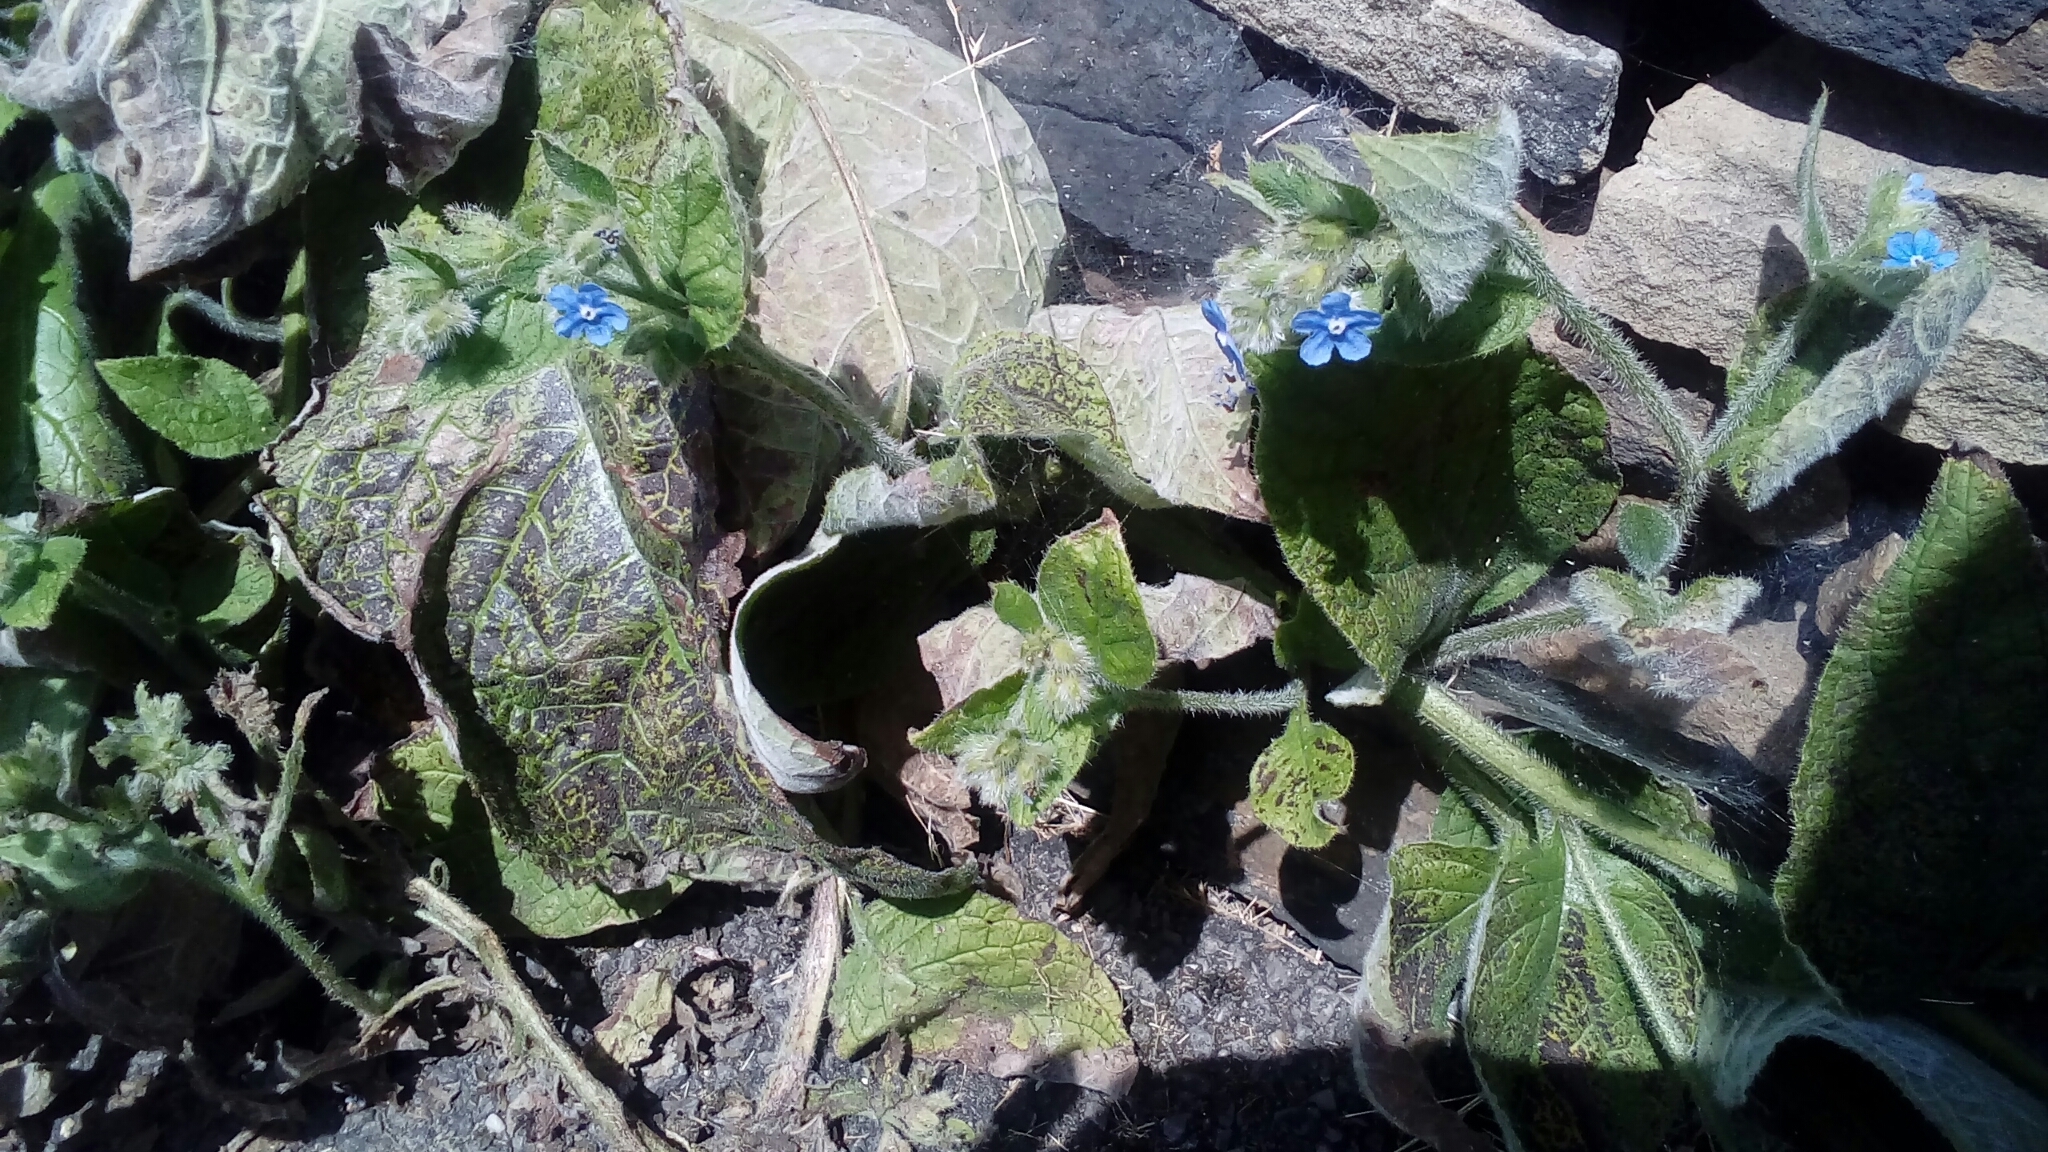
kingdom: Plantae
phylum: Tracheophyta
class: Magnoliopsida
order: Boraginales
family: Boraginaceae
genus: Pentaglottis
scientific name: Pentaglottis sempervirens
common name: Green alkanet
